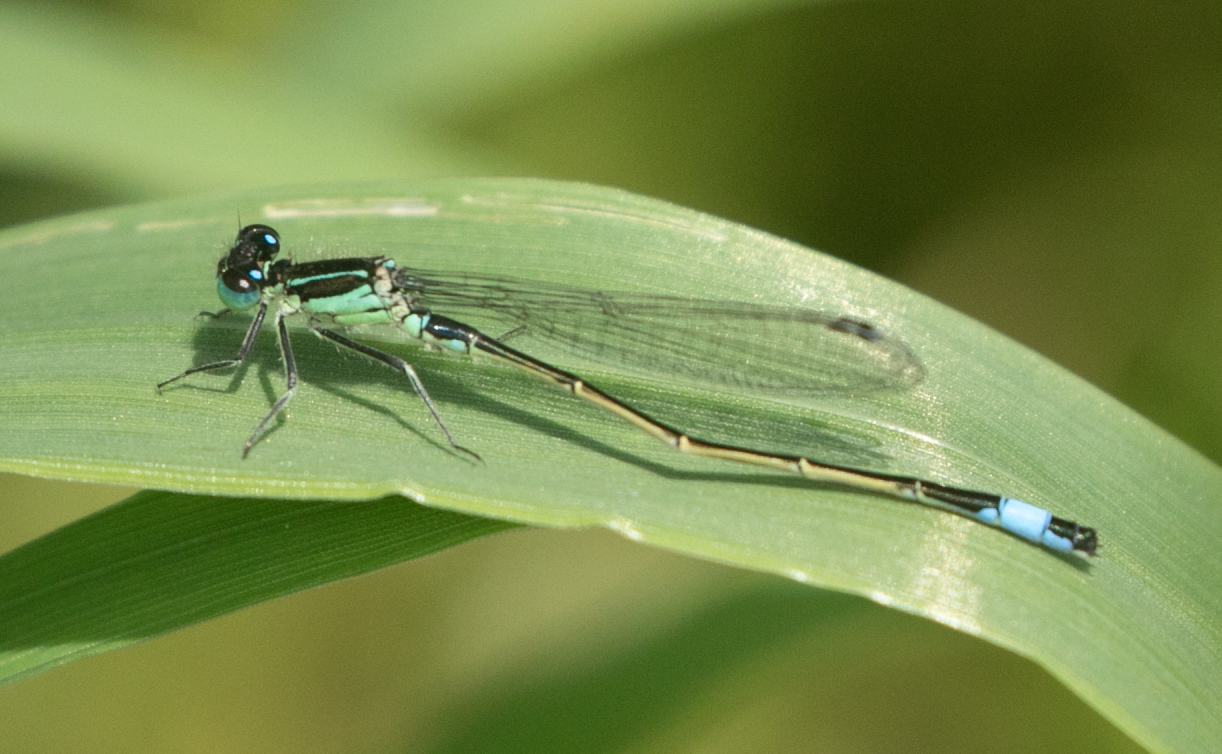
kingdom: Animalia
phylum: Arthropoda
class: Insecta
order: Odonata
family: Coenagrionidae
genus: Ischnura
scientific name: Ischnura elegans
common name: Blue-tailed damselfly
